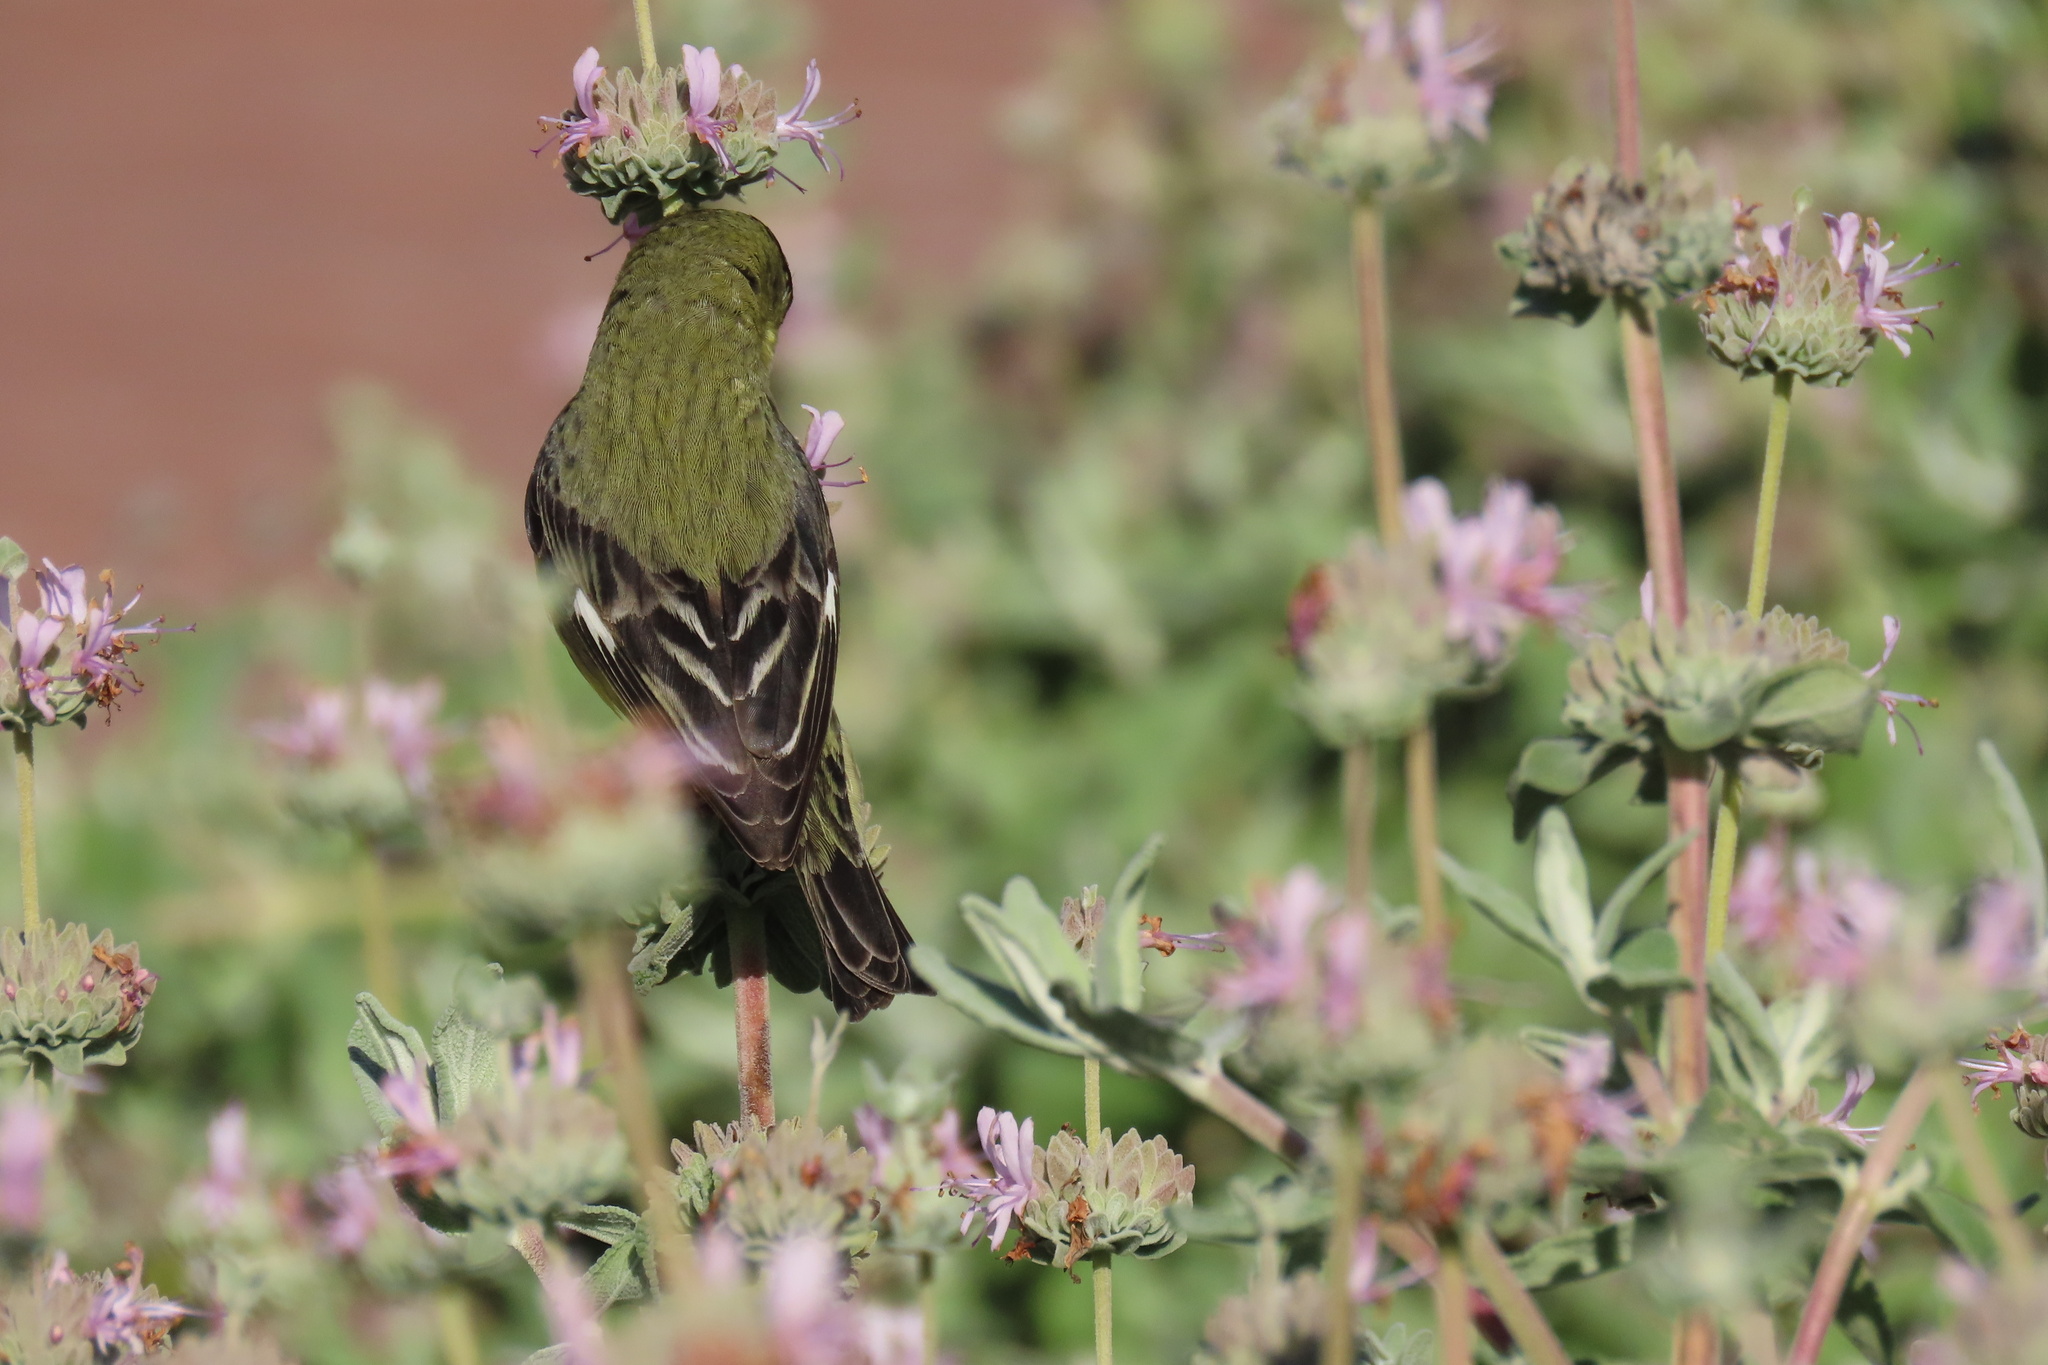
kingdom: Animalia
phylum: Chordata
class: Aves
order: Passeriformes
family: Fringillidae
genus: Spinus
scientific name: Spinus psaltria
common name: Lesser goldfinch
